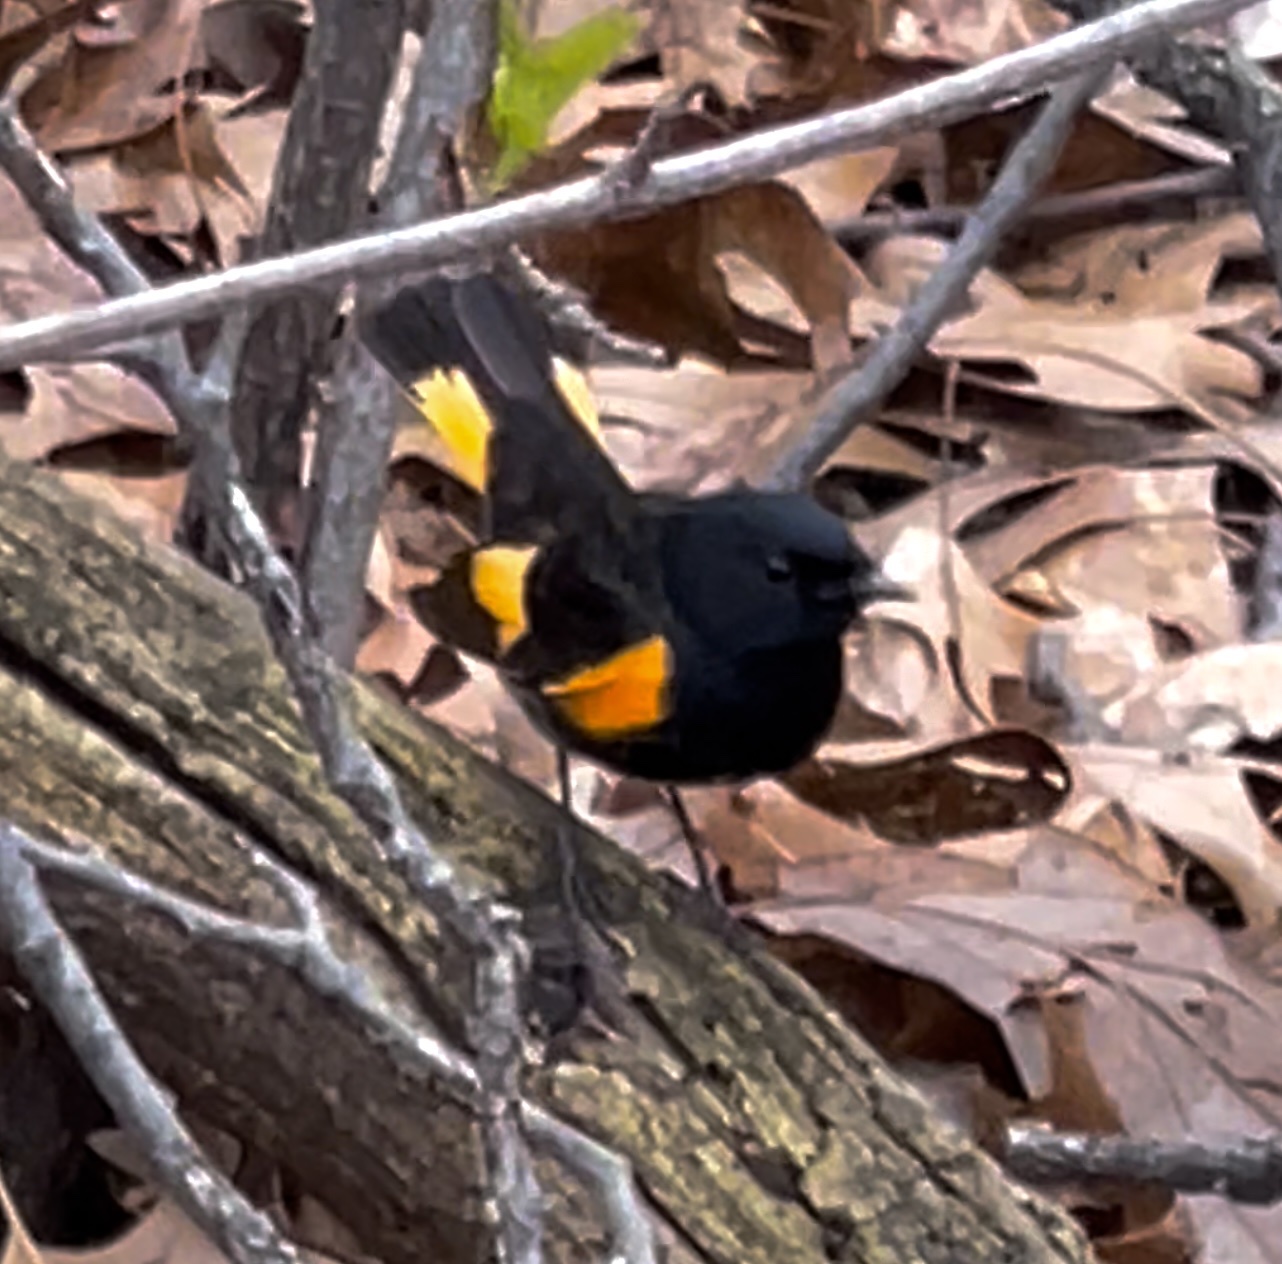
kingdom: Animalia
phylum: Chordata
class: Aves
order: Passeriformes
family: Parulidae
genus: Setophaga
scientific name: Setophaga ruticilla
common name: American redstart
